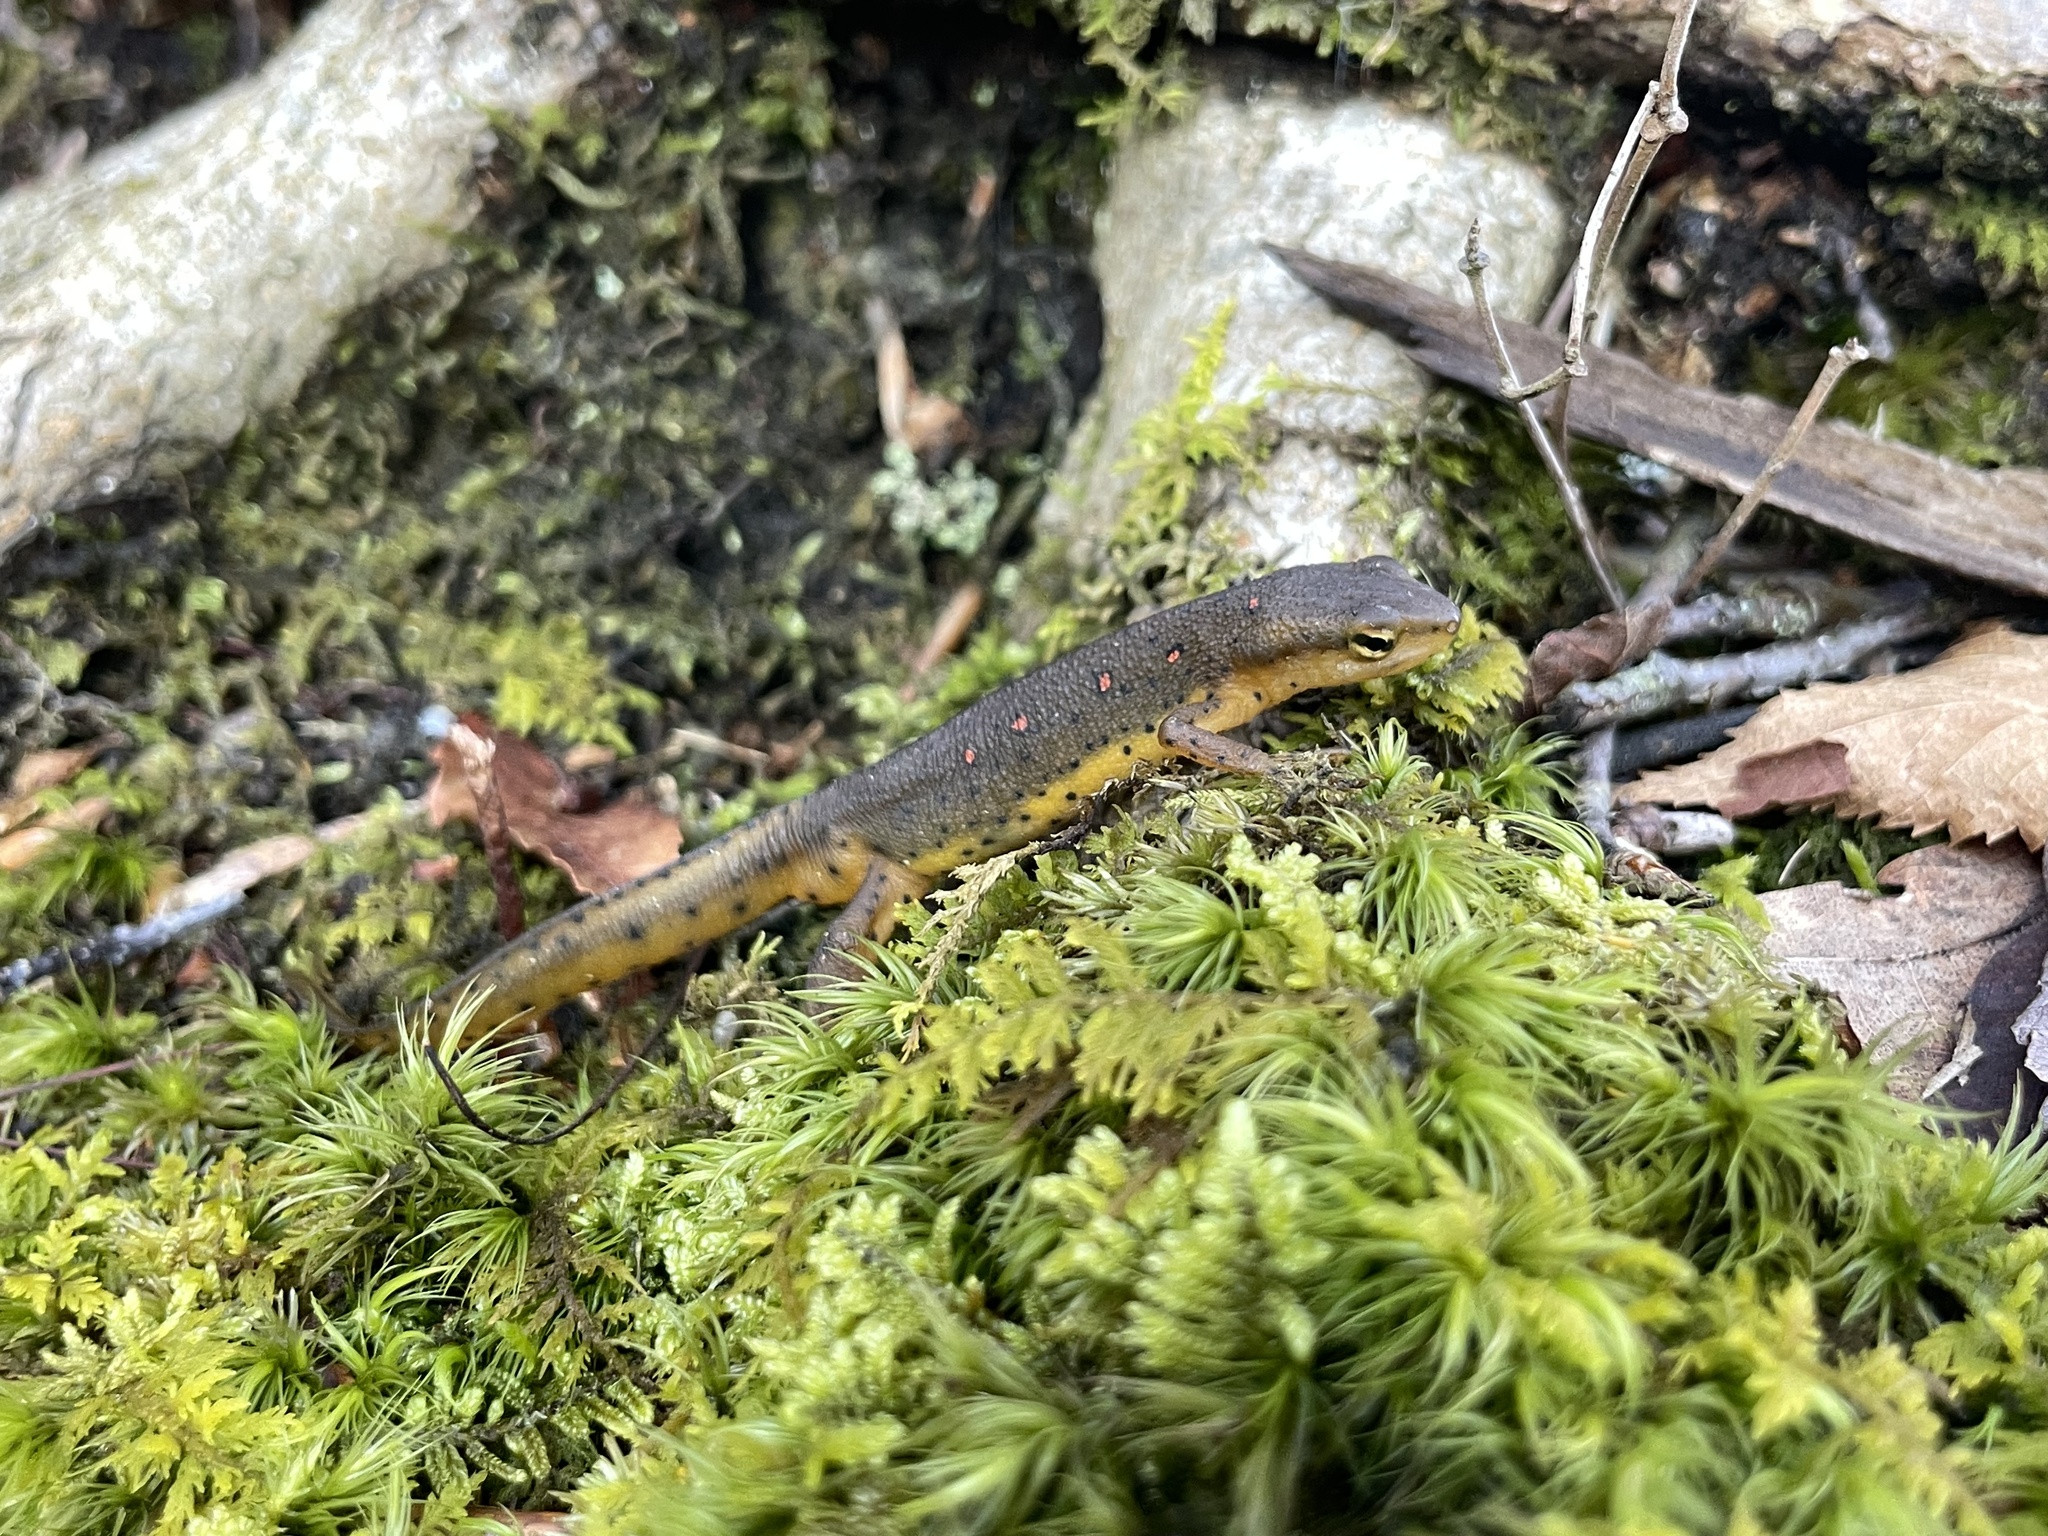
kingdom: Animalia
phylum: Chordata
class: Amphibia
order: Caudata
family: Salamandridae
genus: Notophthalmus
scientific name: Notophthalmus viridescens
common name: Eastern newt
